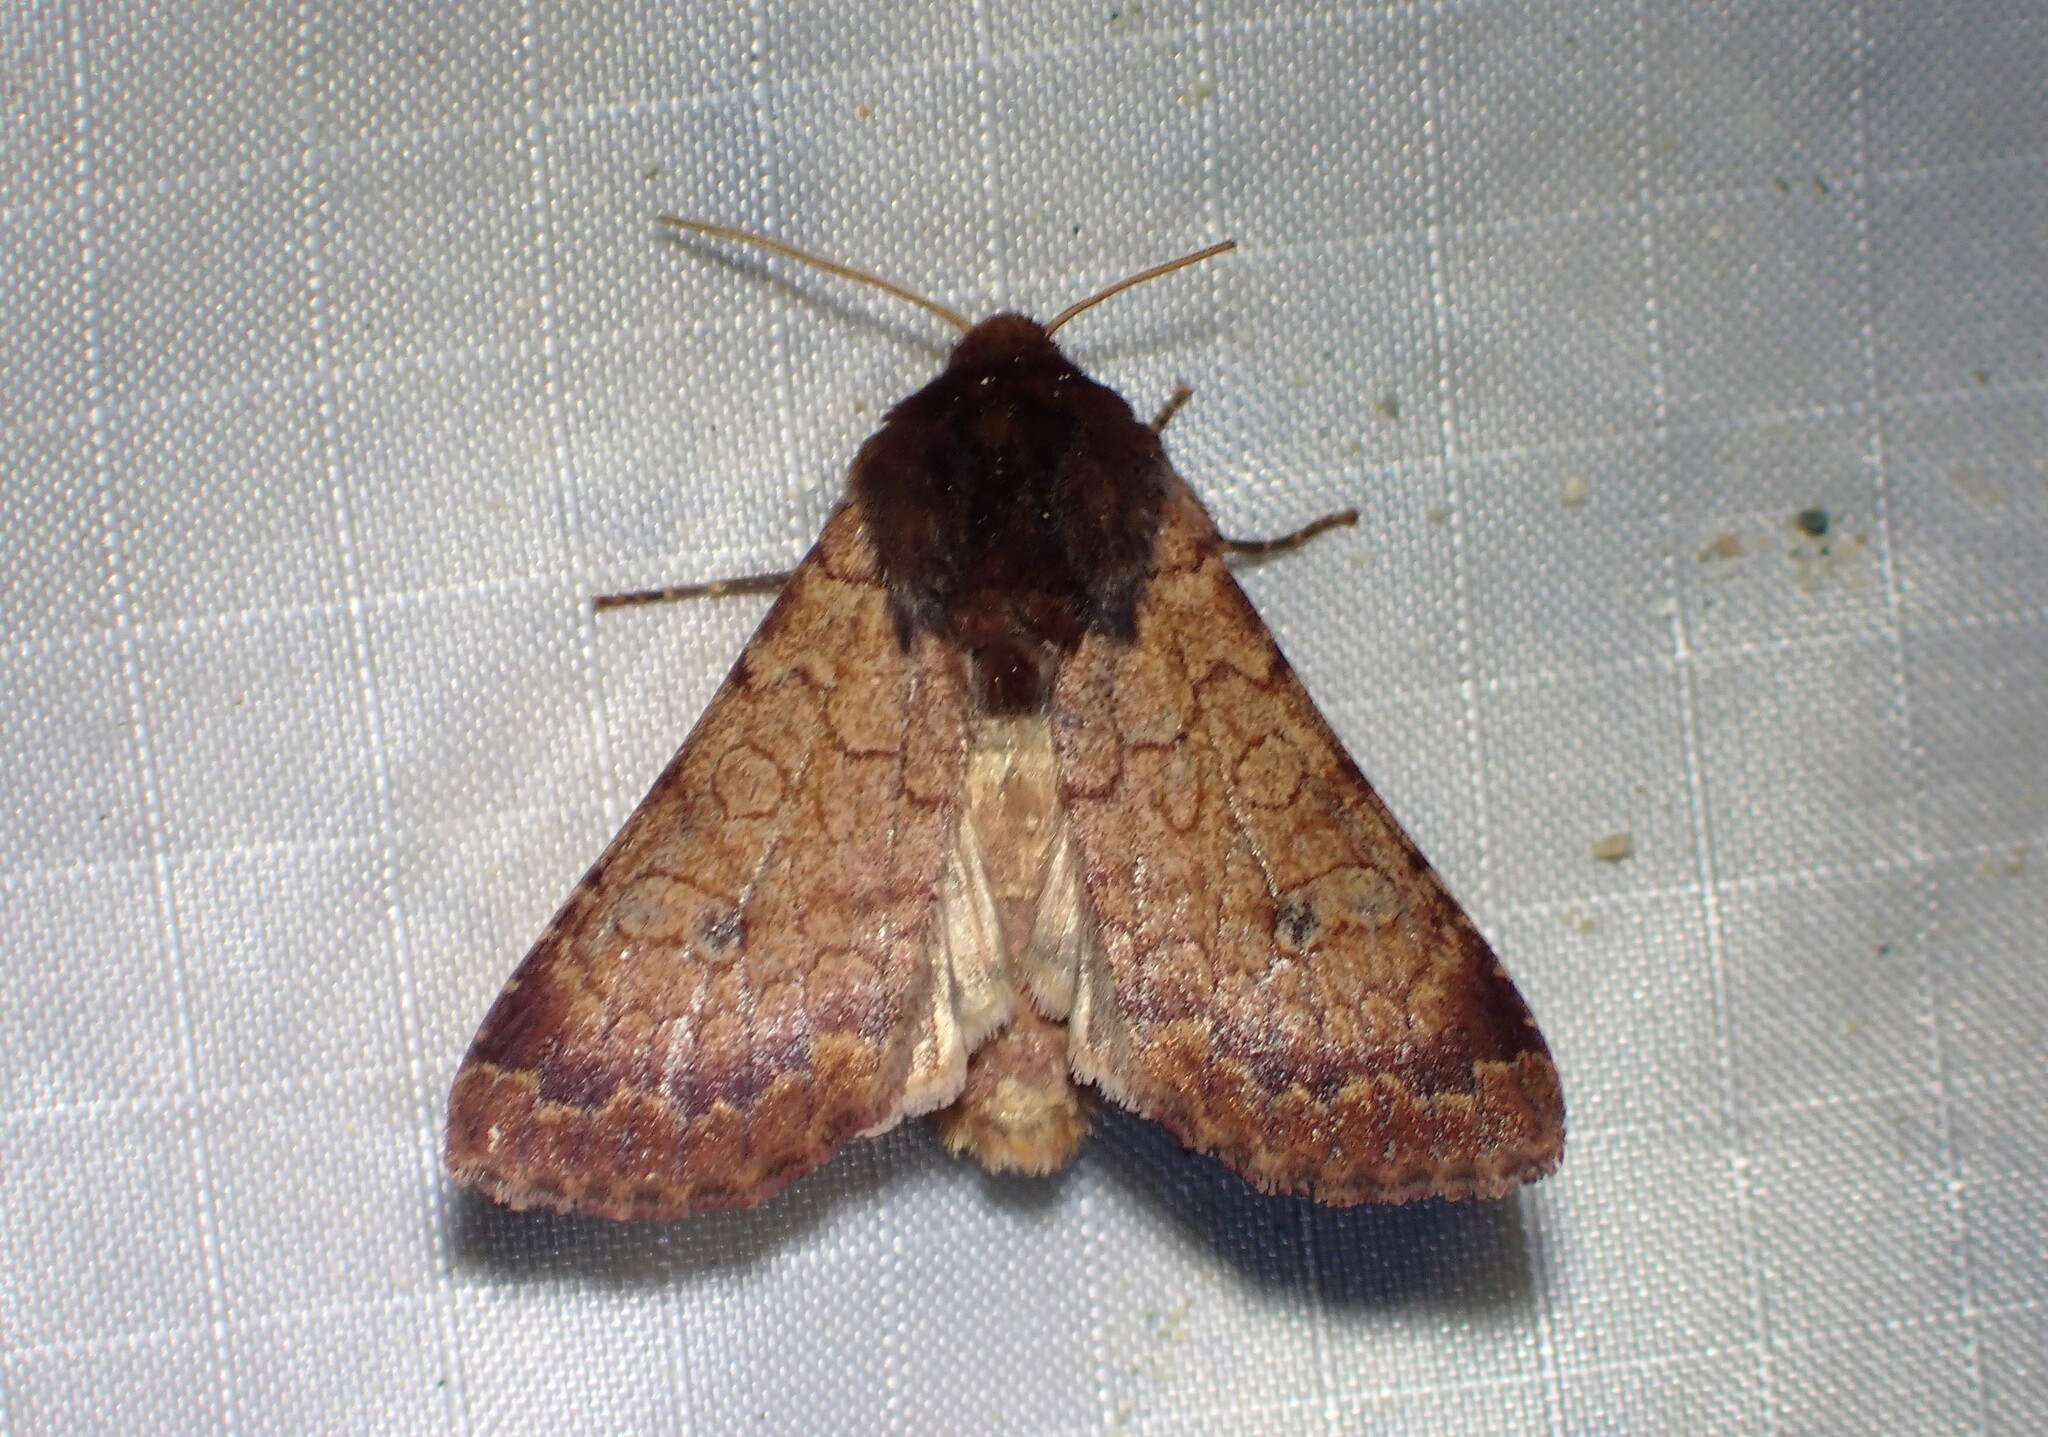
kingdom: Animalia
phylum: Arthropoda
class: Insecta
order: Lepidoptera
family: Noctuidae
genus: Sideridis
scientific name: Sideridis rosea
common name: Rosewing moth
